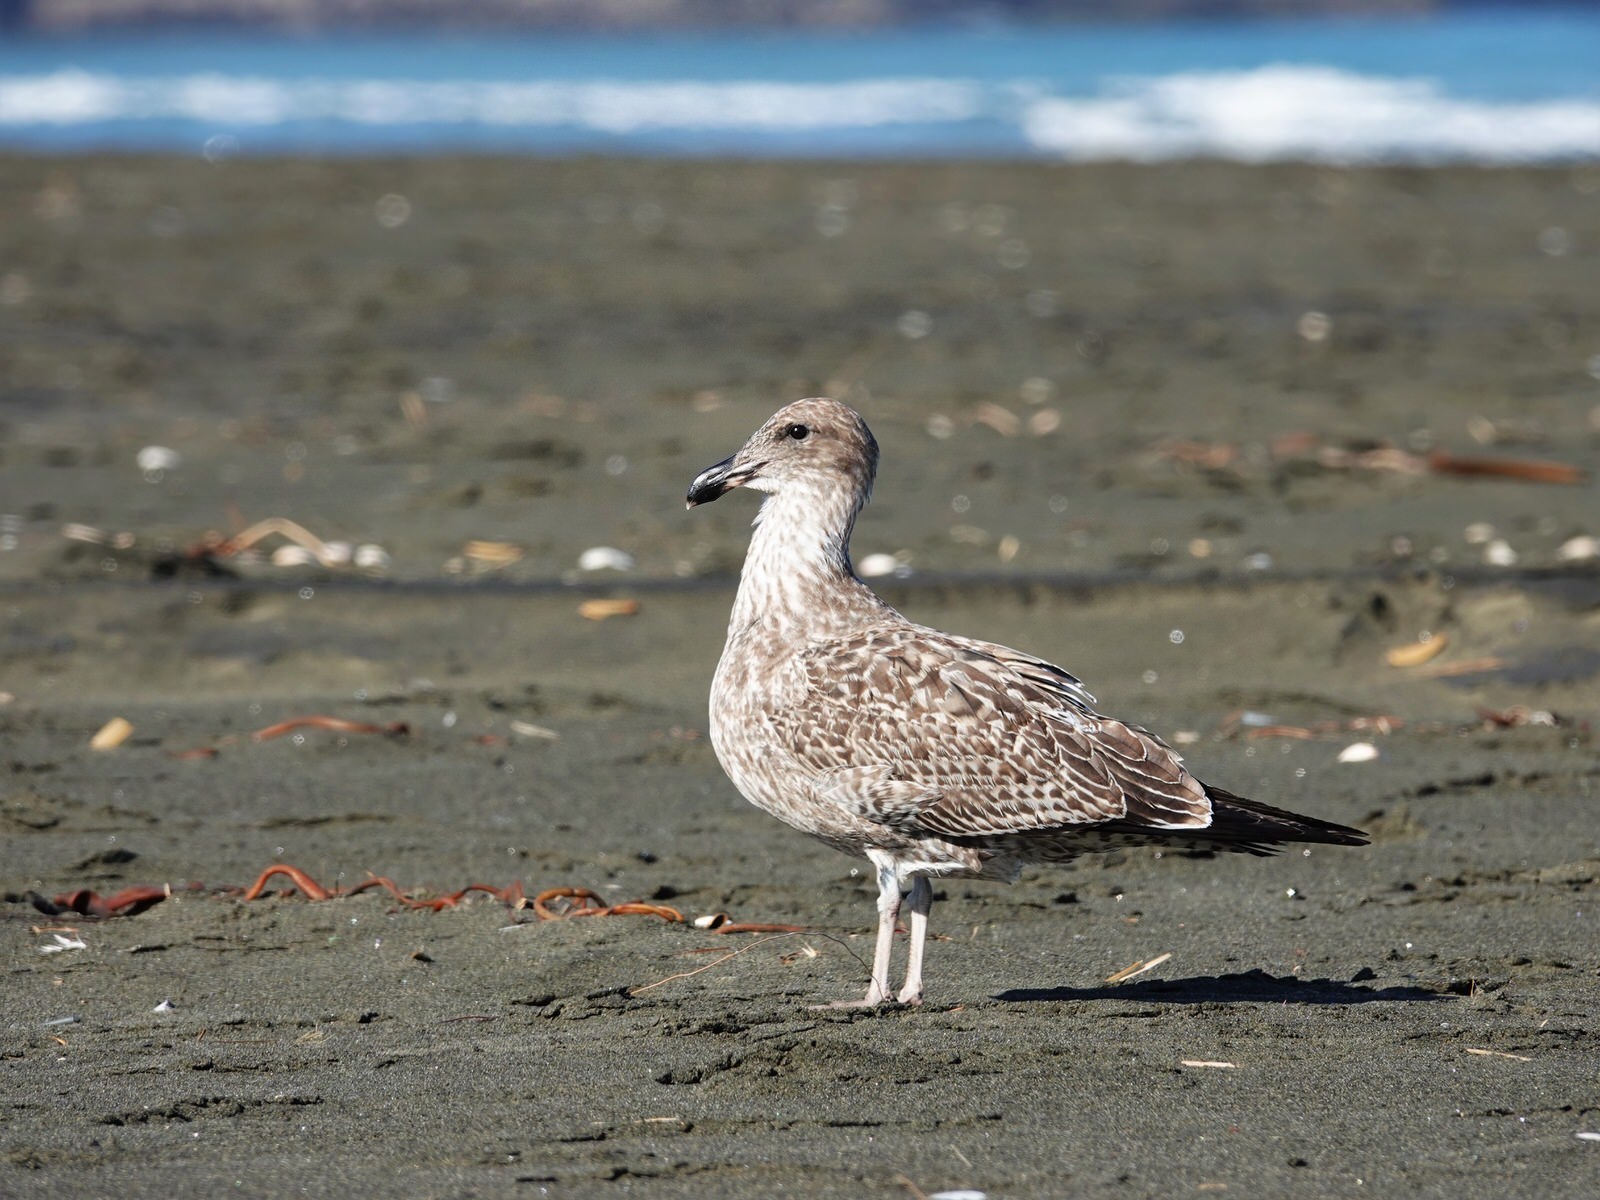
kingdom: Animalia
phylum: Chordata
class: Aves
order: Charadriiformes
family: Laridae
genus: Larus
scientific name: Larus dominicanus
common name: Kelp gull
